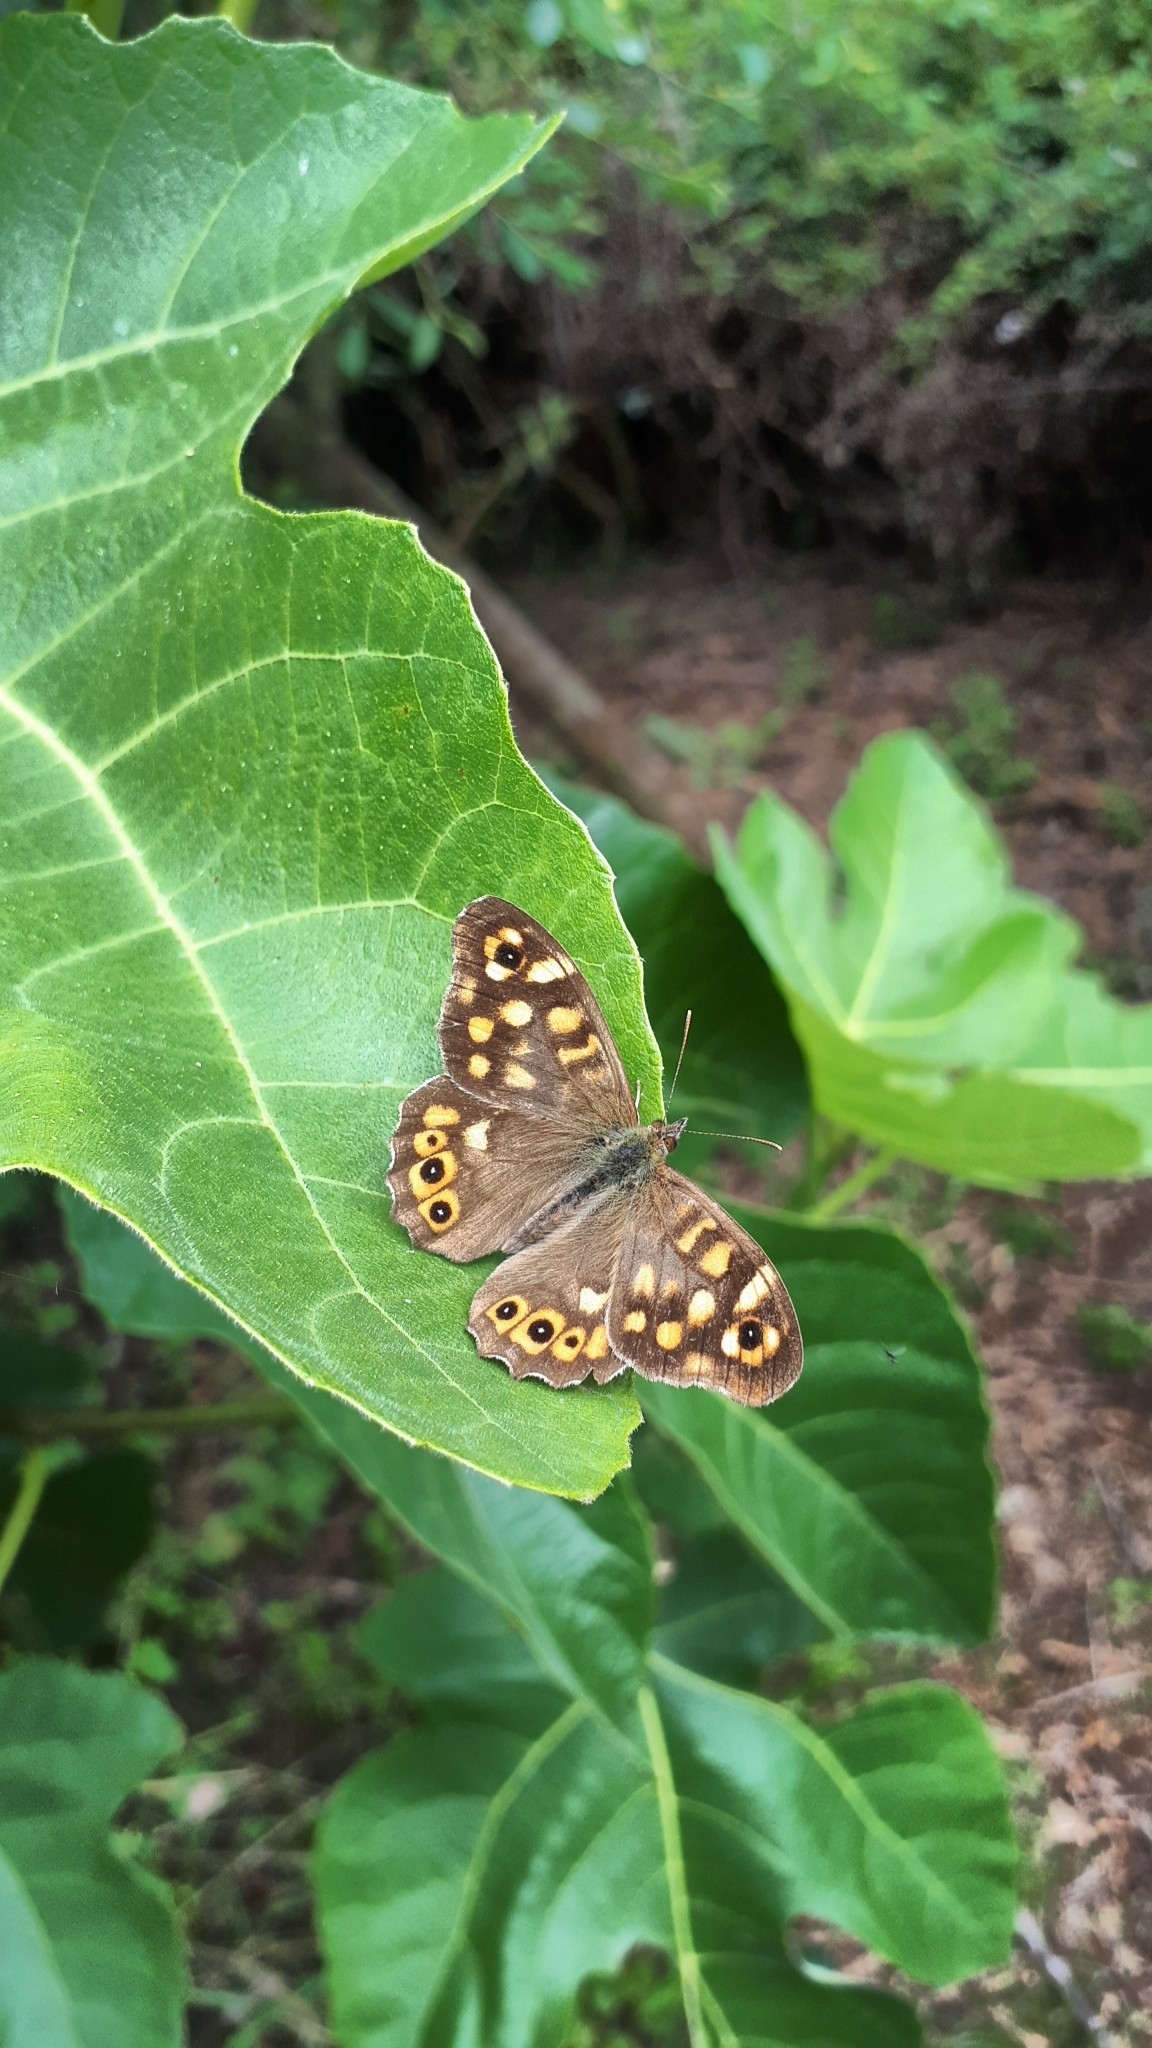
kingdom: Animalia
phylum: Arthropoda
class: Insecta
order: Lepidoptera
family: Nymphalidae
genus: Pararge
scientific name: Pararge aegeria
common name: Speckled wood
